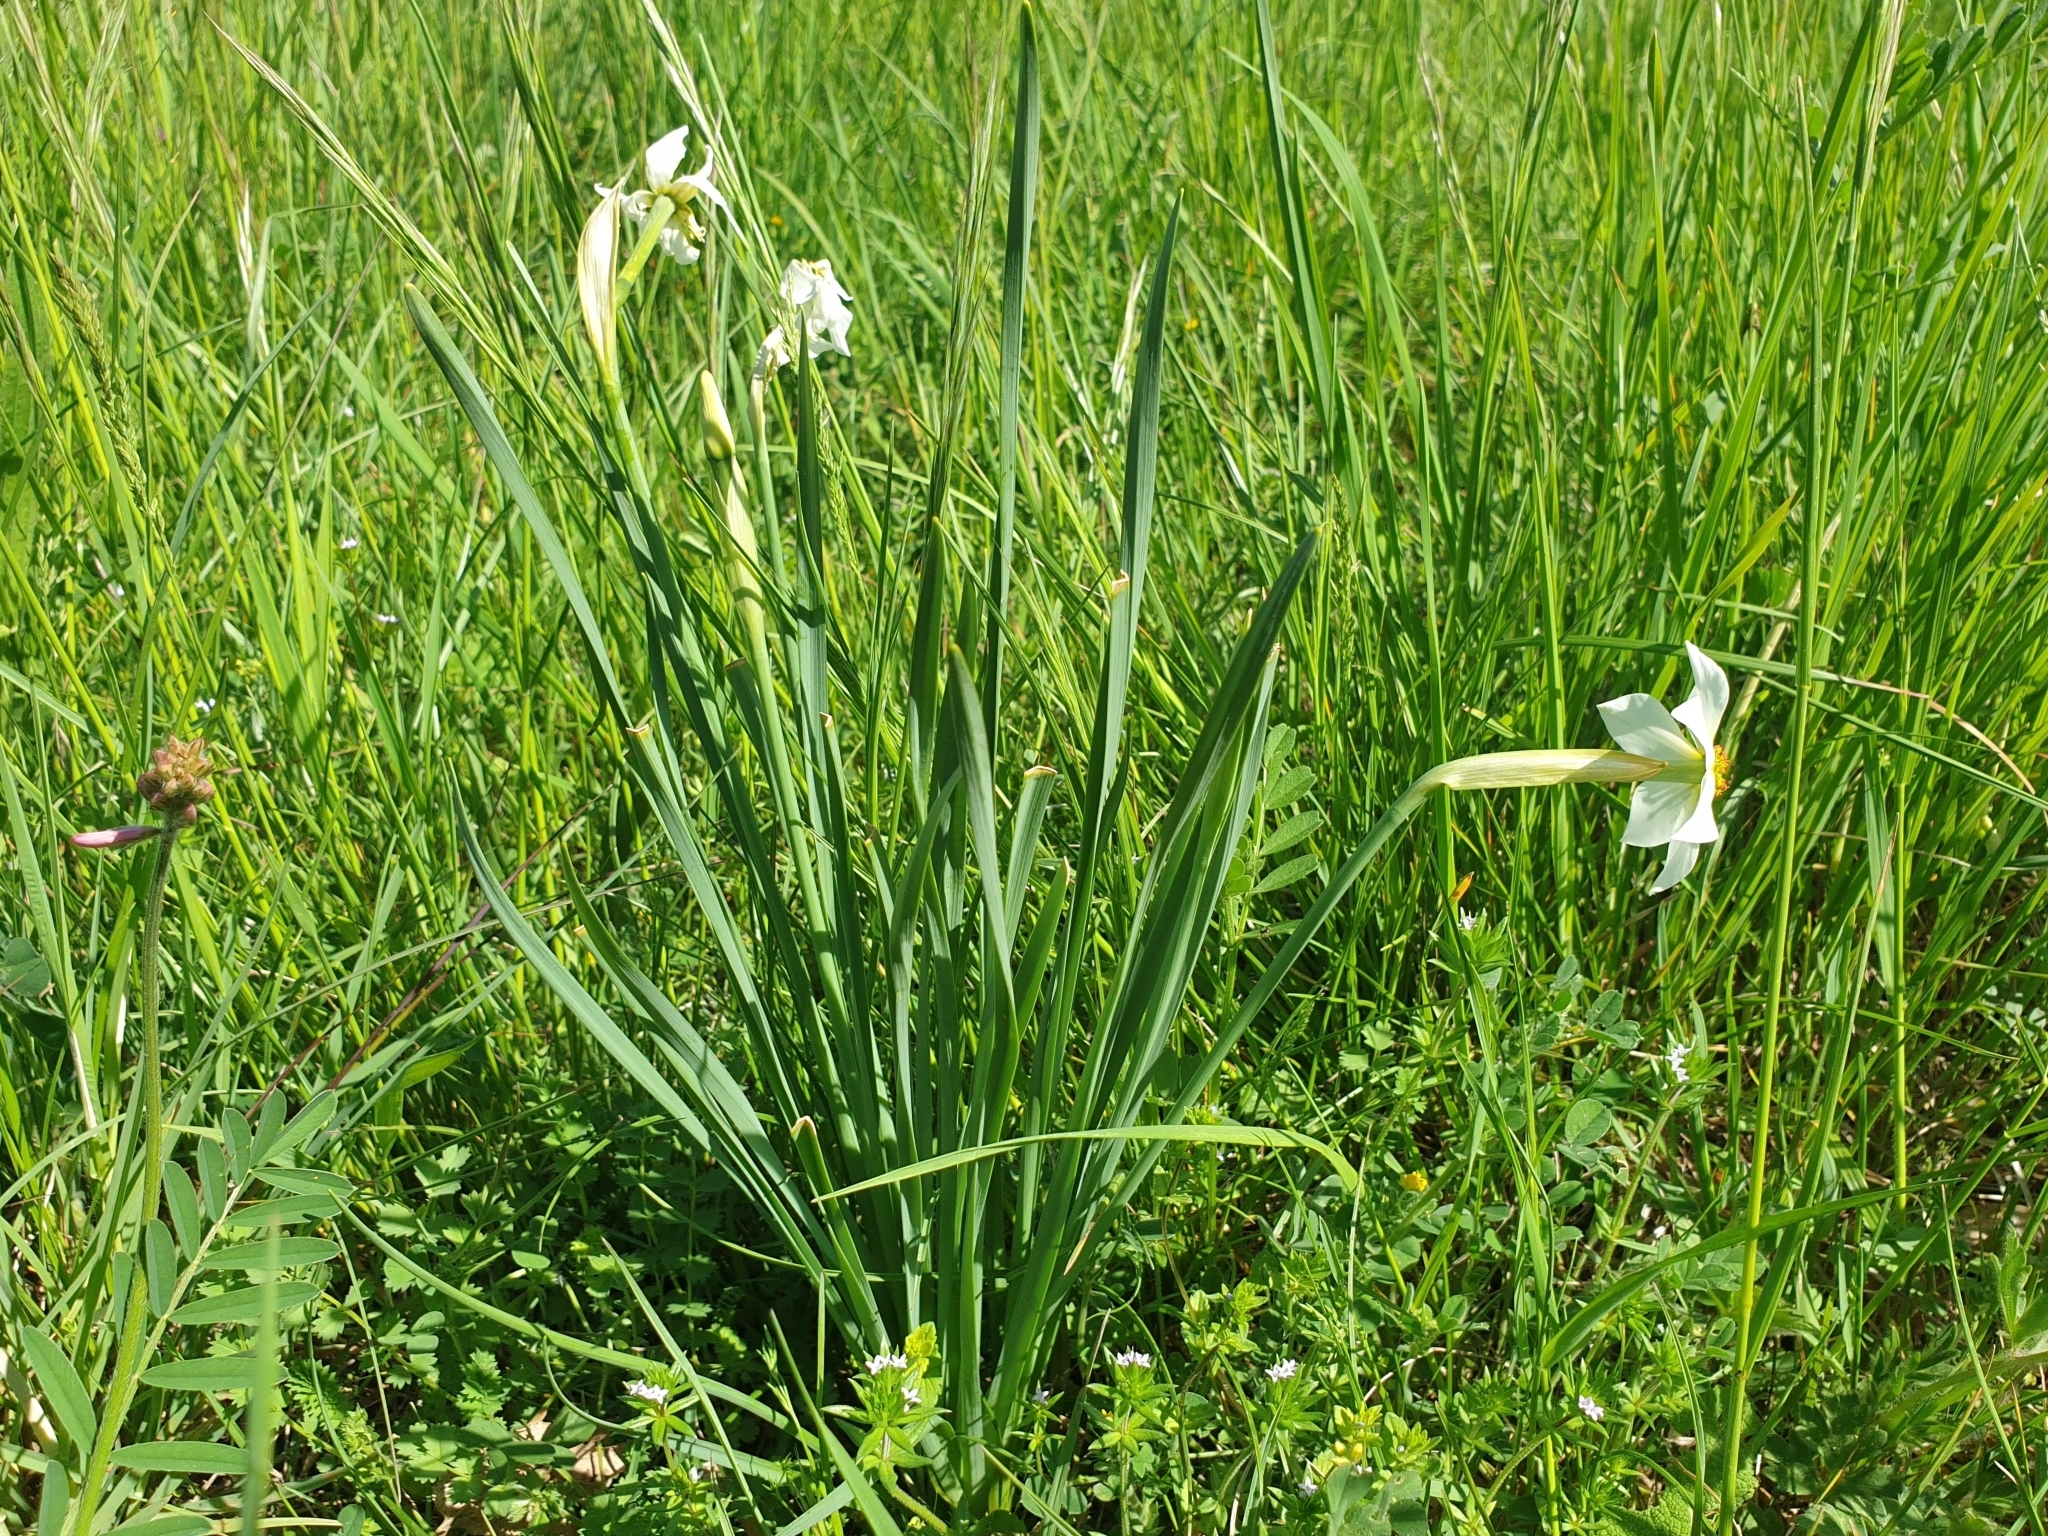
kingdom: Plantae
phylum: Tracheophyta
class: Liliopsida
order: Asparagales
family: Amaryllidaceae
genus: Narcissus
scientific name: Narcissus poeticus
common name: Pheasant's-eye daffodil
